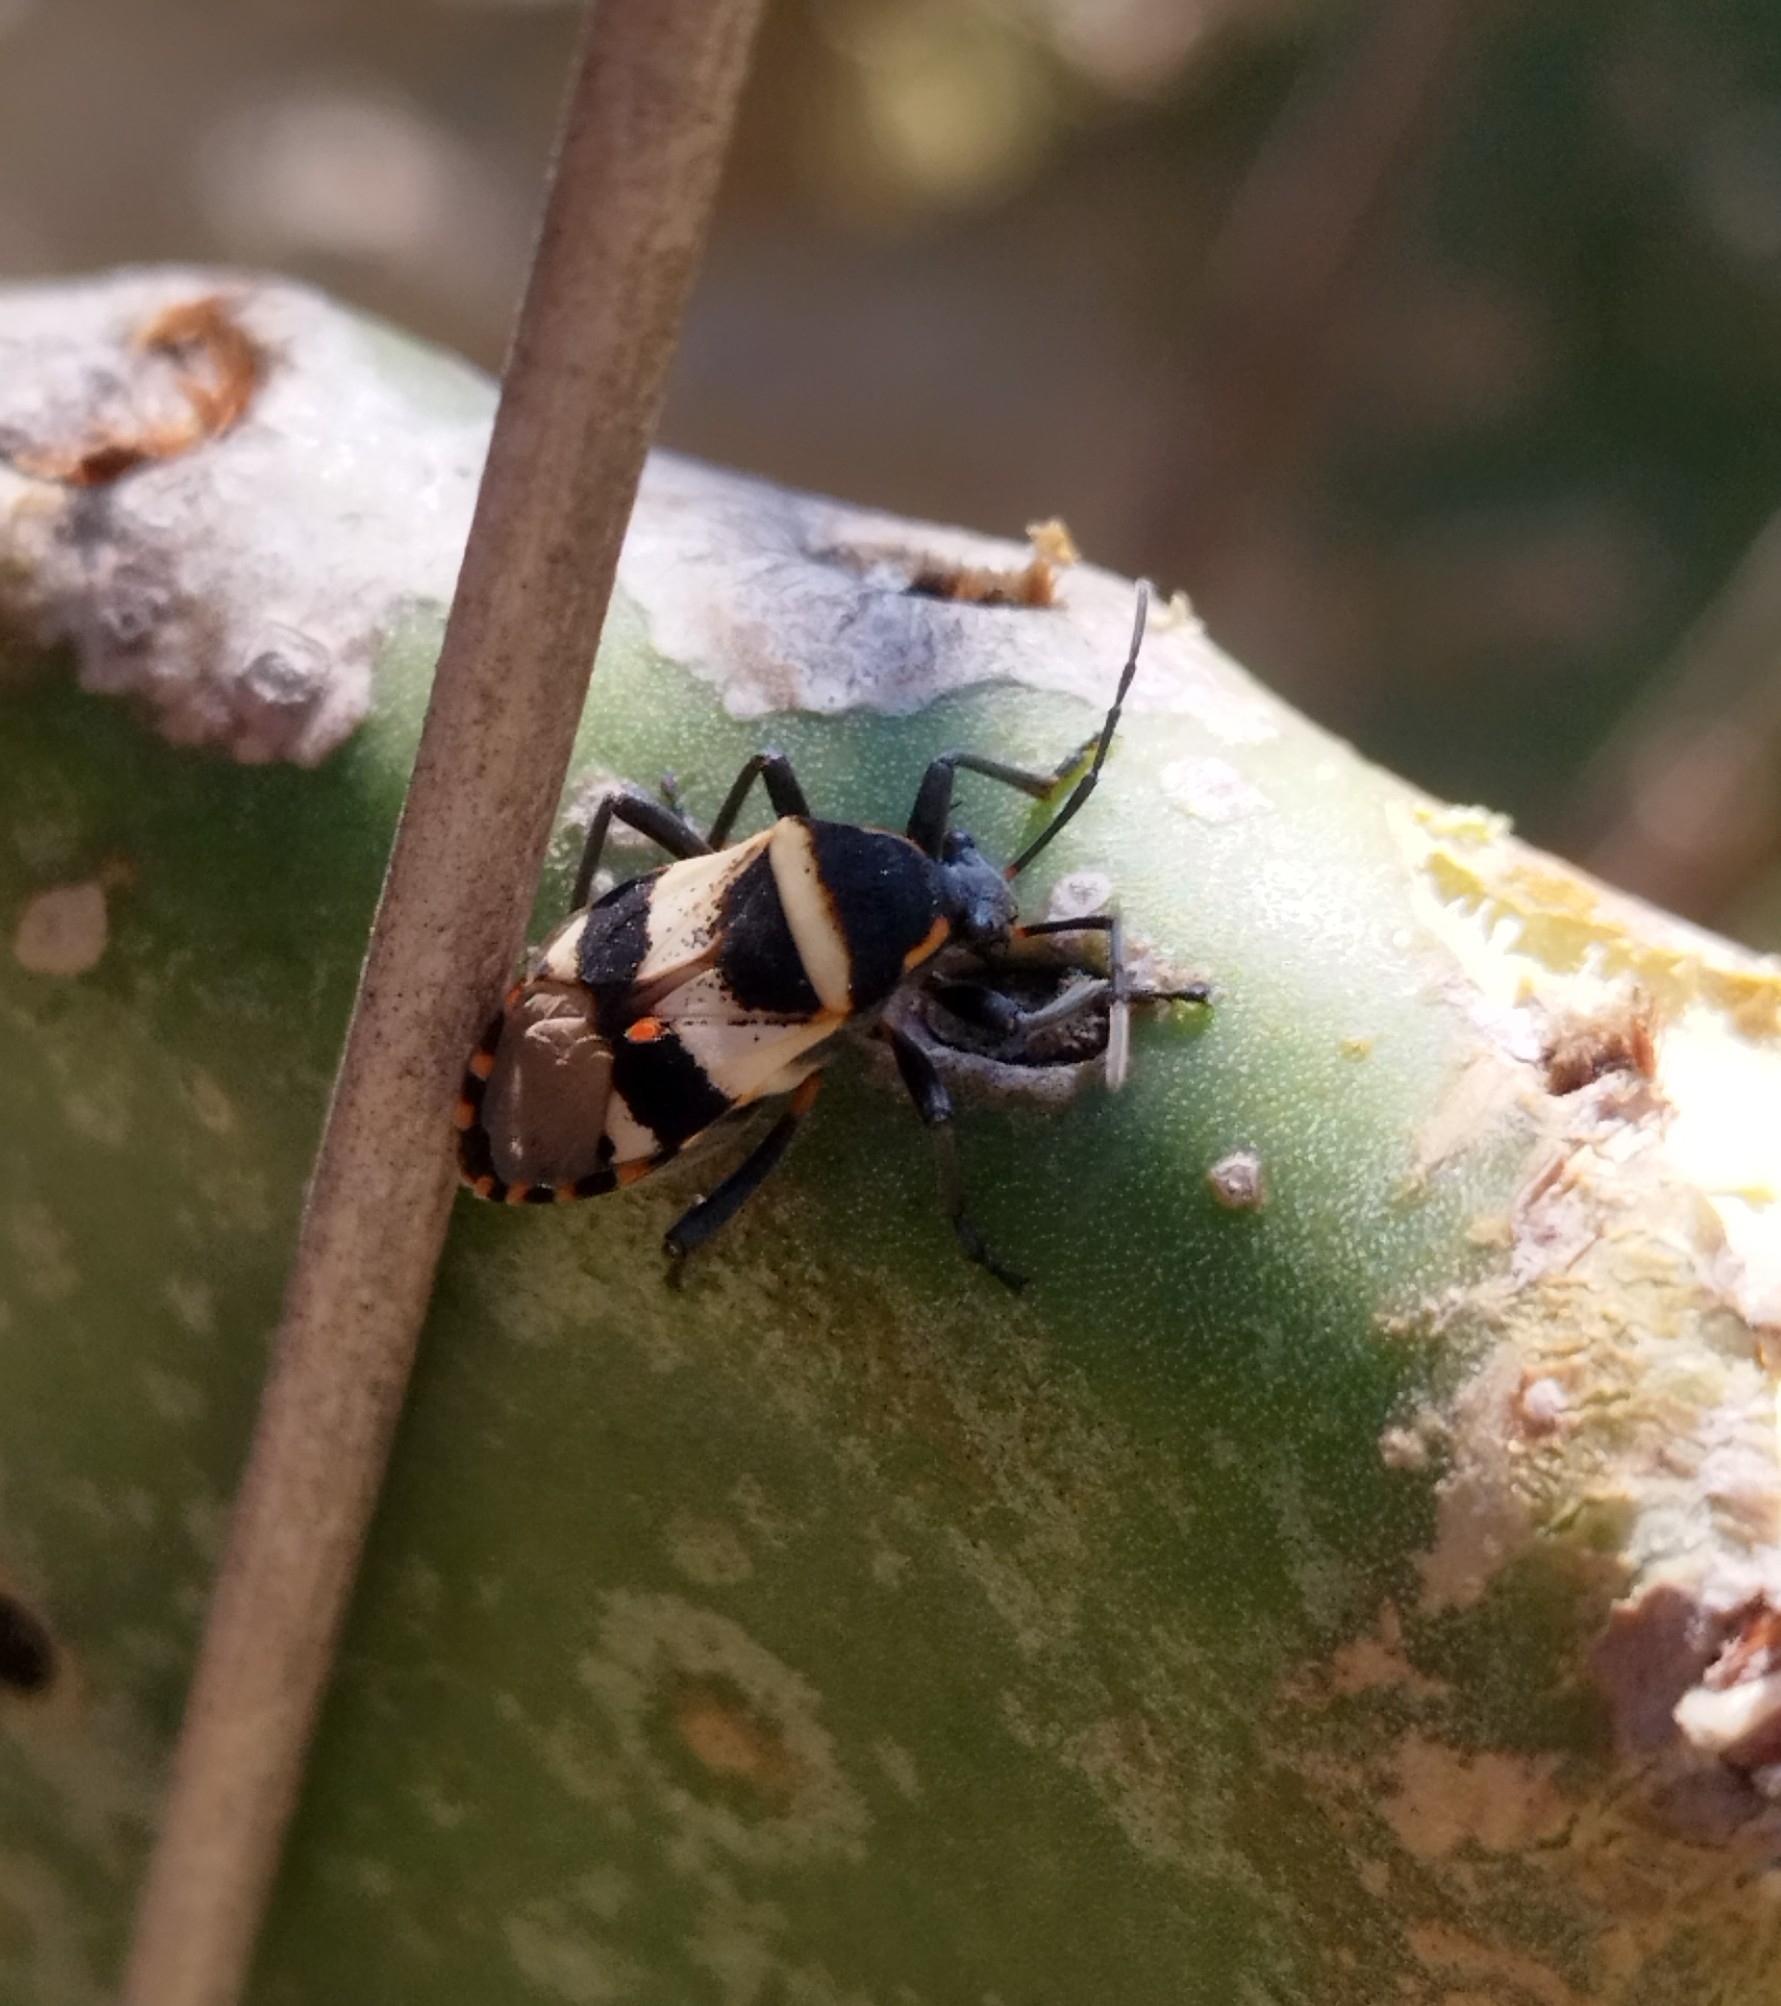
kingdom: Animalia
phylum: Arthropoda
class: Insecta
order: Hemiptera
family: Largidae
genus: Largus
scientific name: Largus fasciatus
